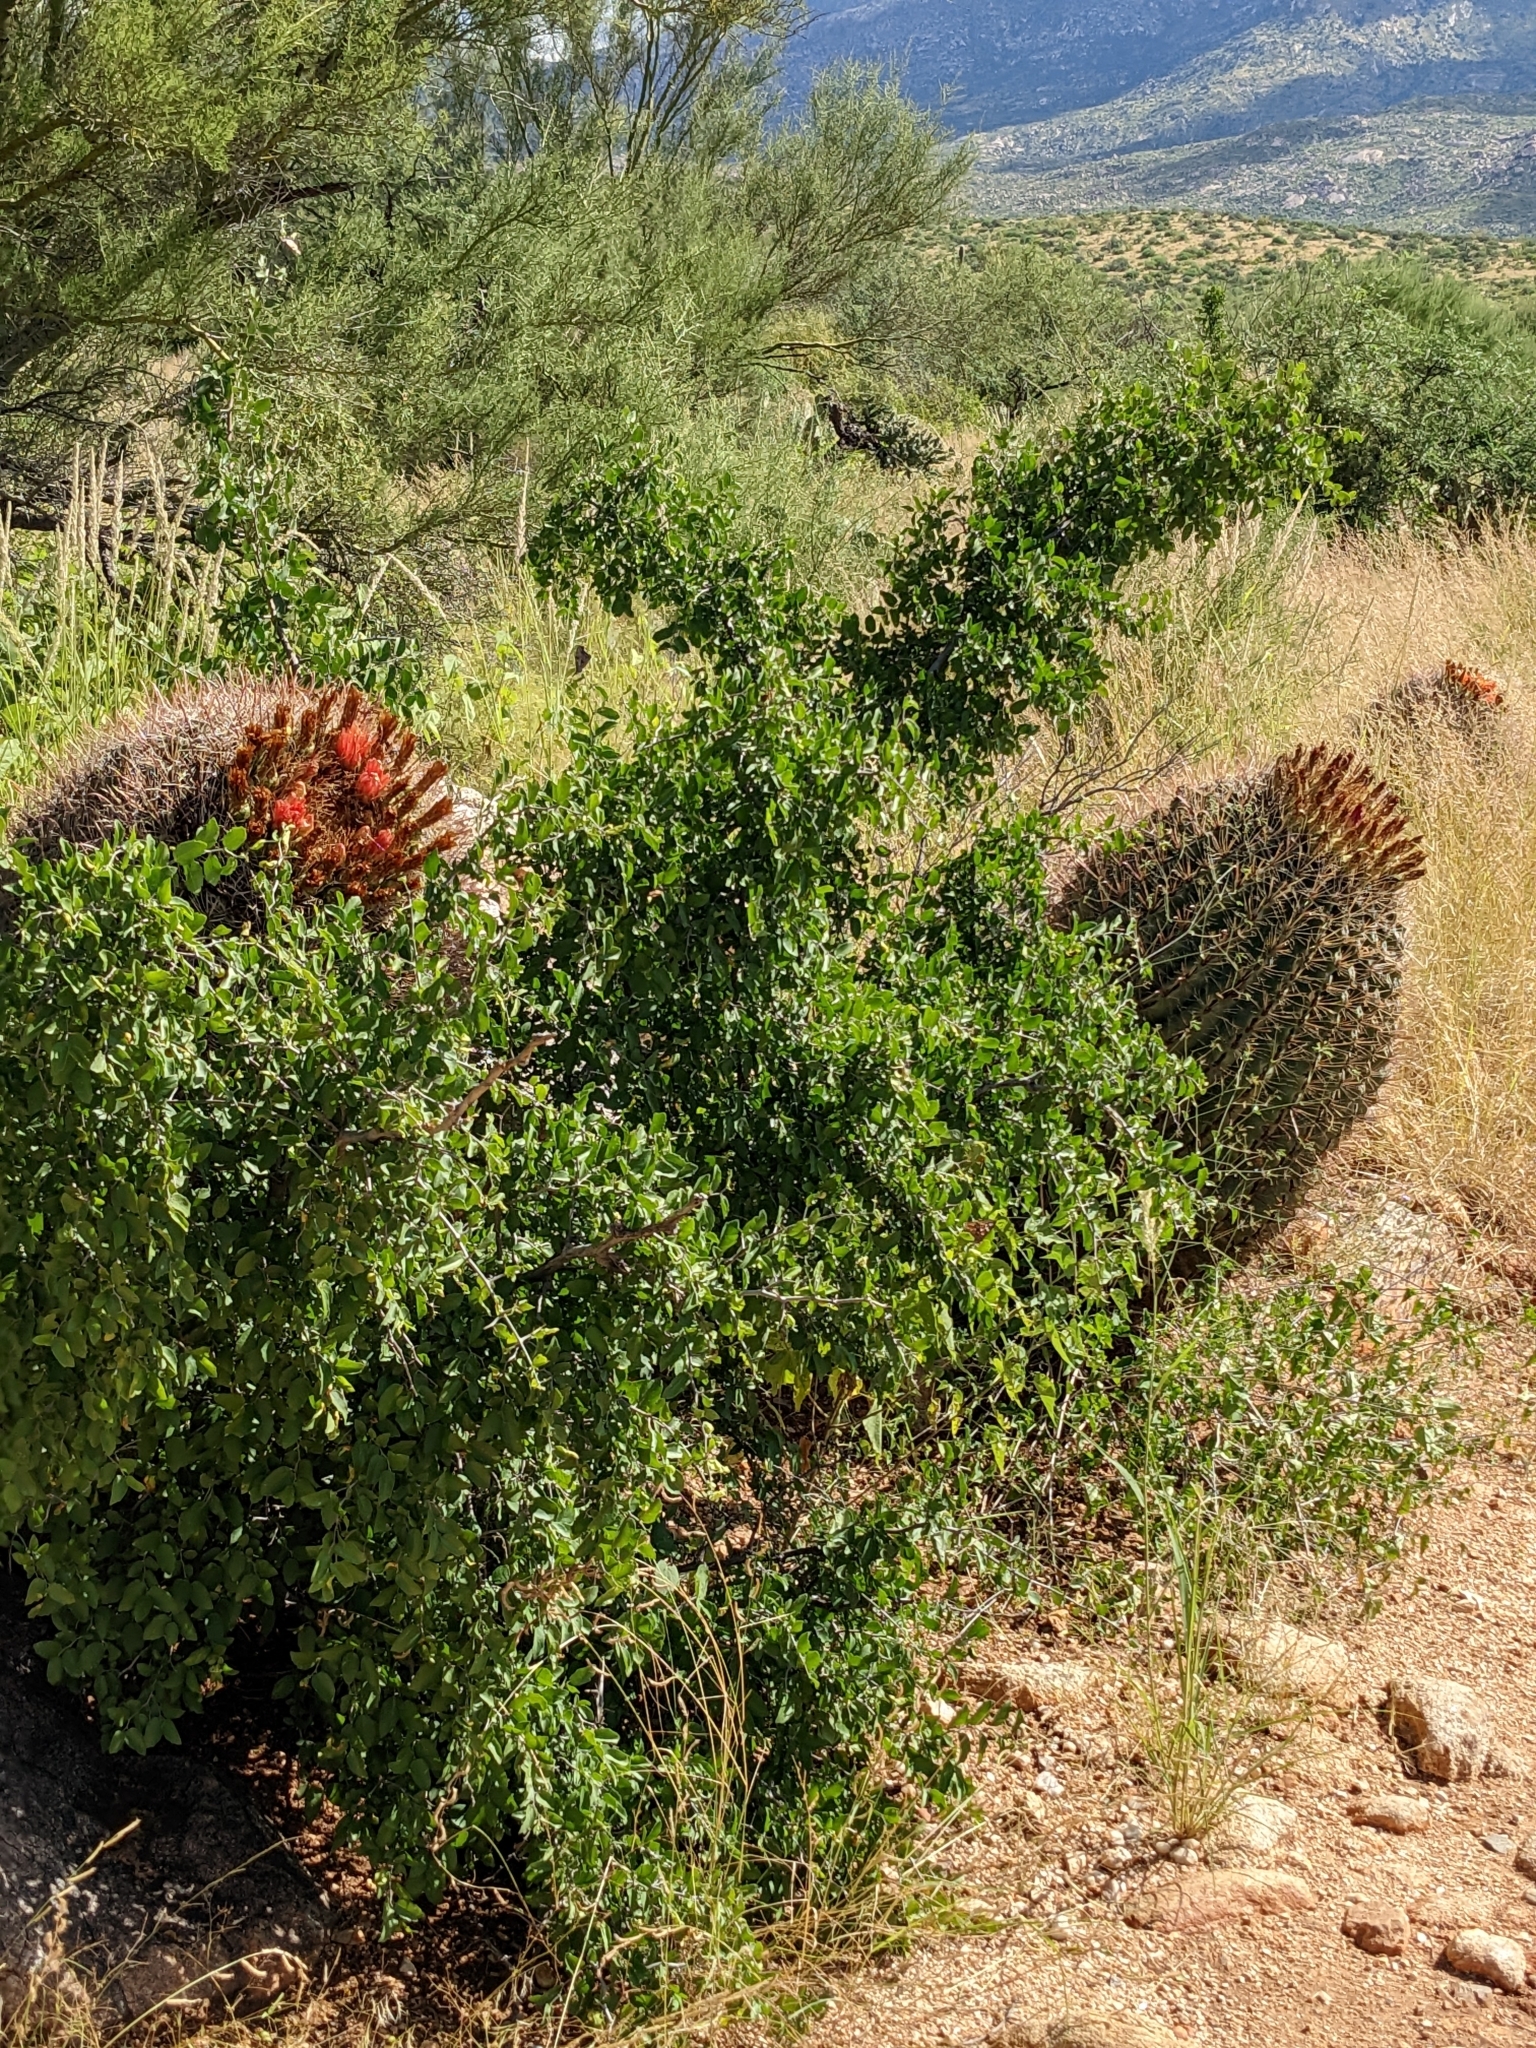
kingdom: Plantae
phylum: Tracheophyta
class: Magnoliopsida
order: Rosales
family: Cannabaceae
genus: Celtis
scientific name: Celtis pallida
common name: Desert hackberry
